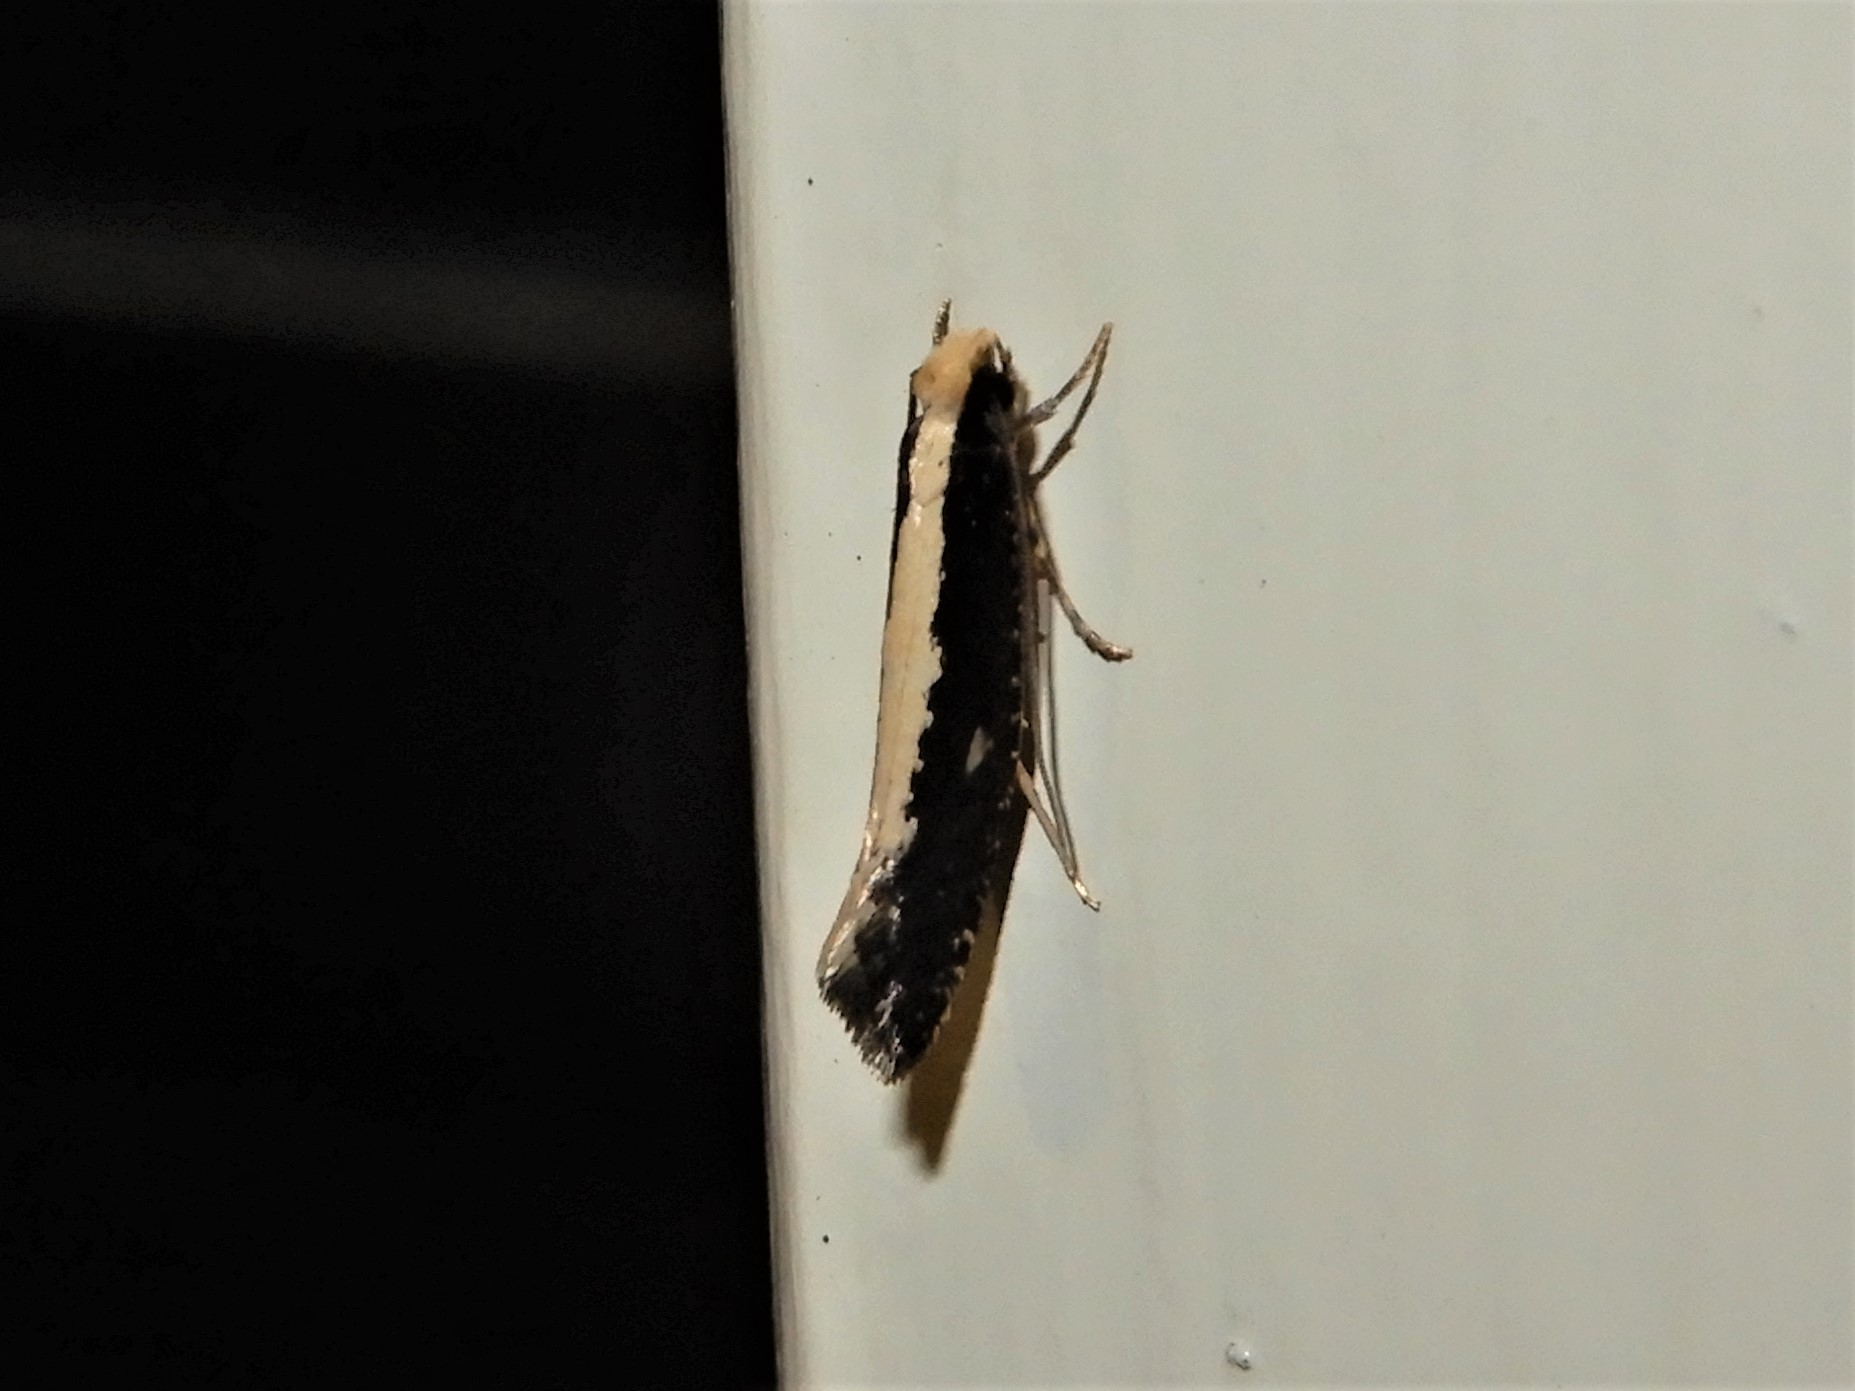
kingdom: Animalia
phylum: Arthropoda
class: Insecta
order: Lepidoptera
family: Tineidae
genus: Monopis
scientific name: Monopis ethelella
